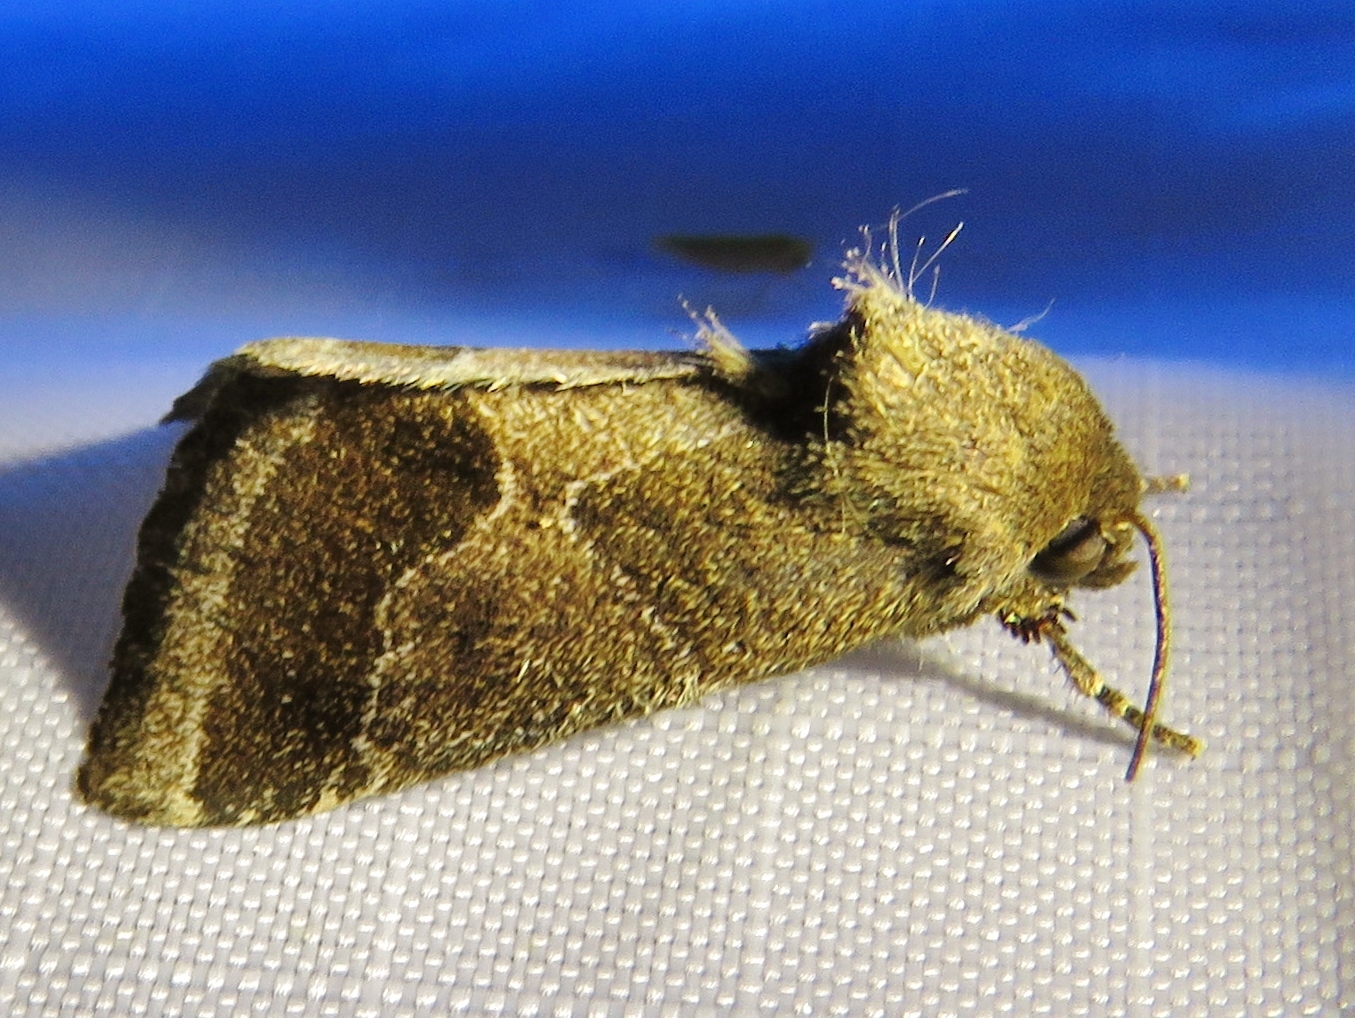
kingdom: Animalia
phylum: Arthropoda
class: Insecta
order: Lepidoptera
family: Noctuidae
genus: Schinia
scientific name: Schinia thoreaui
